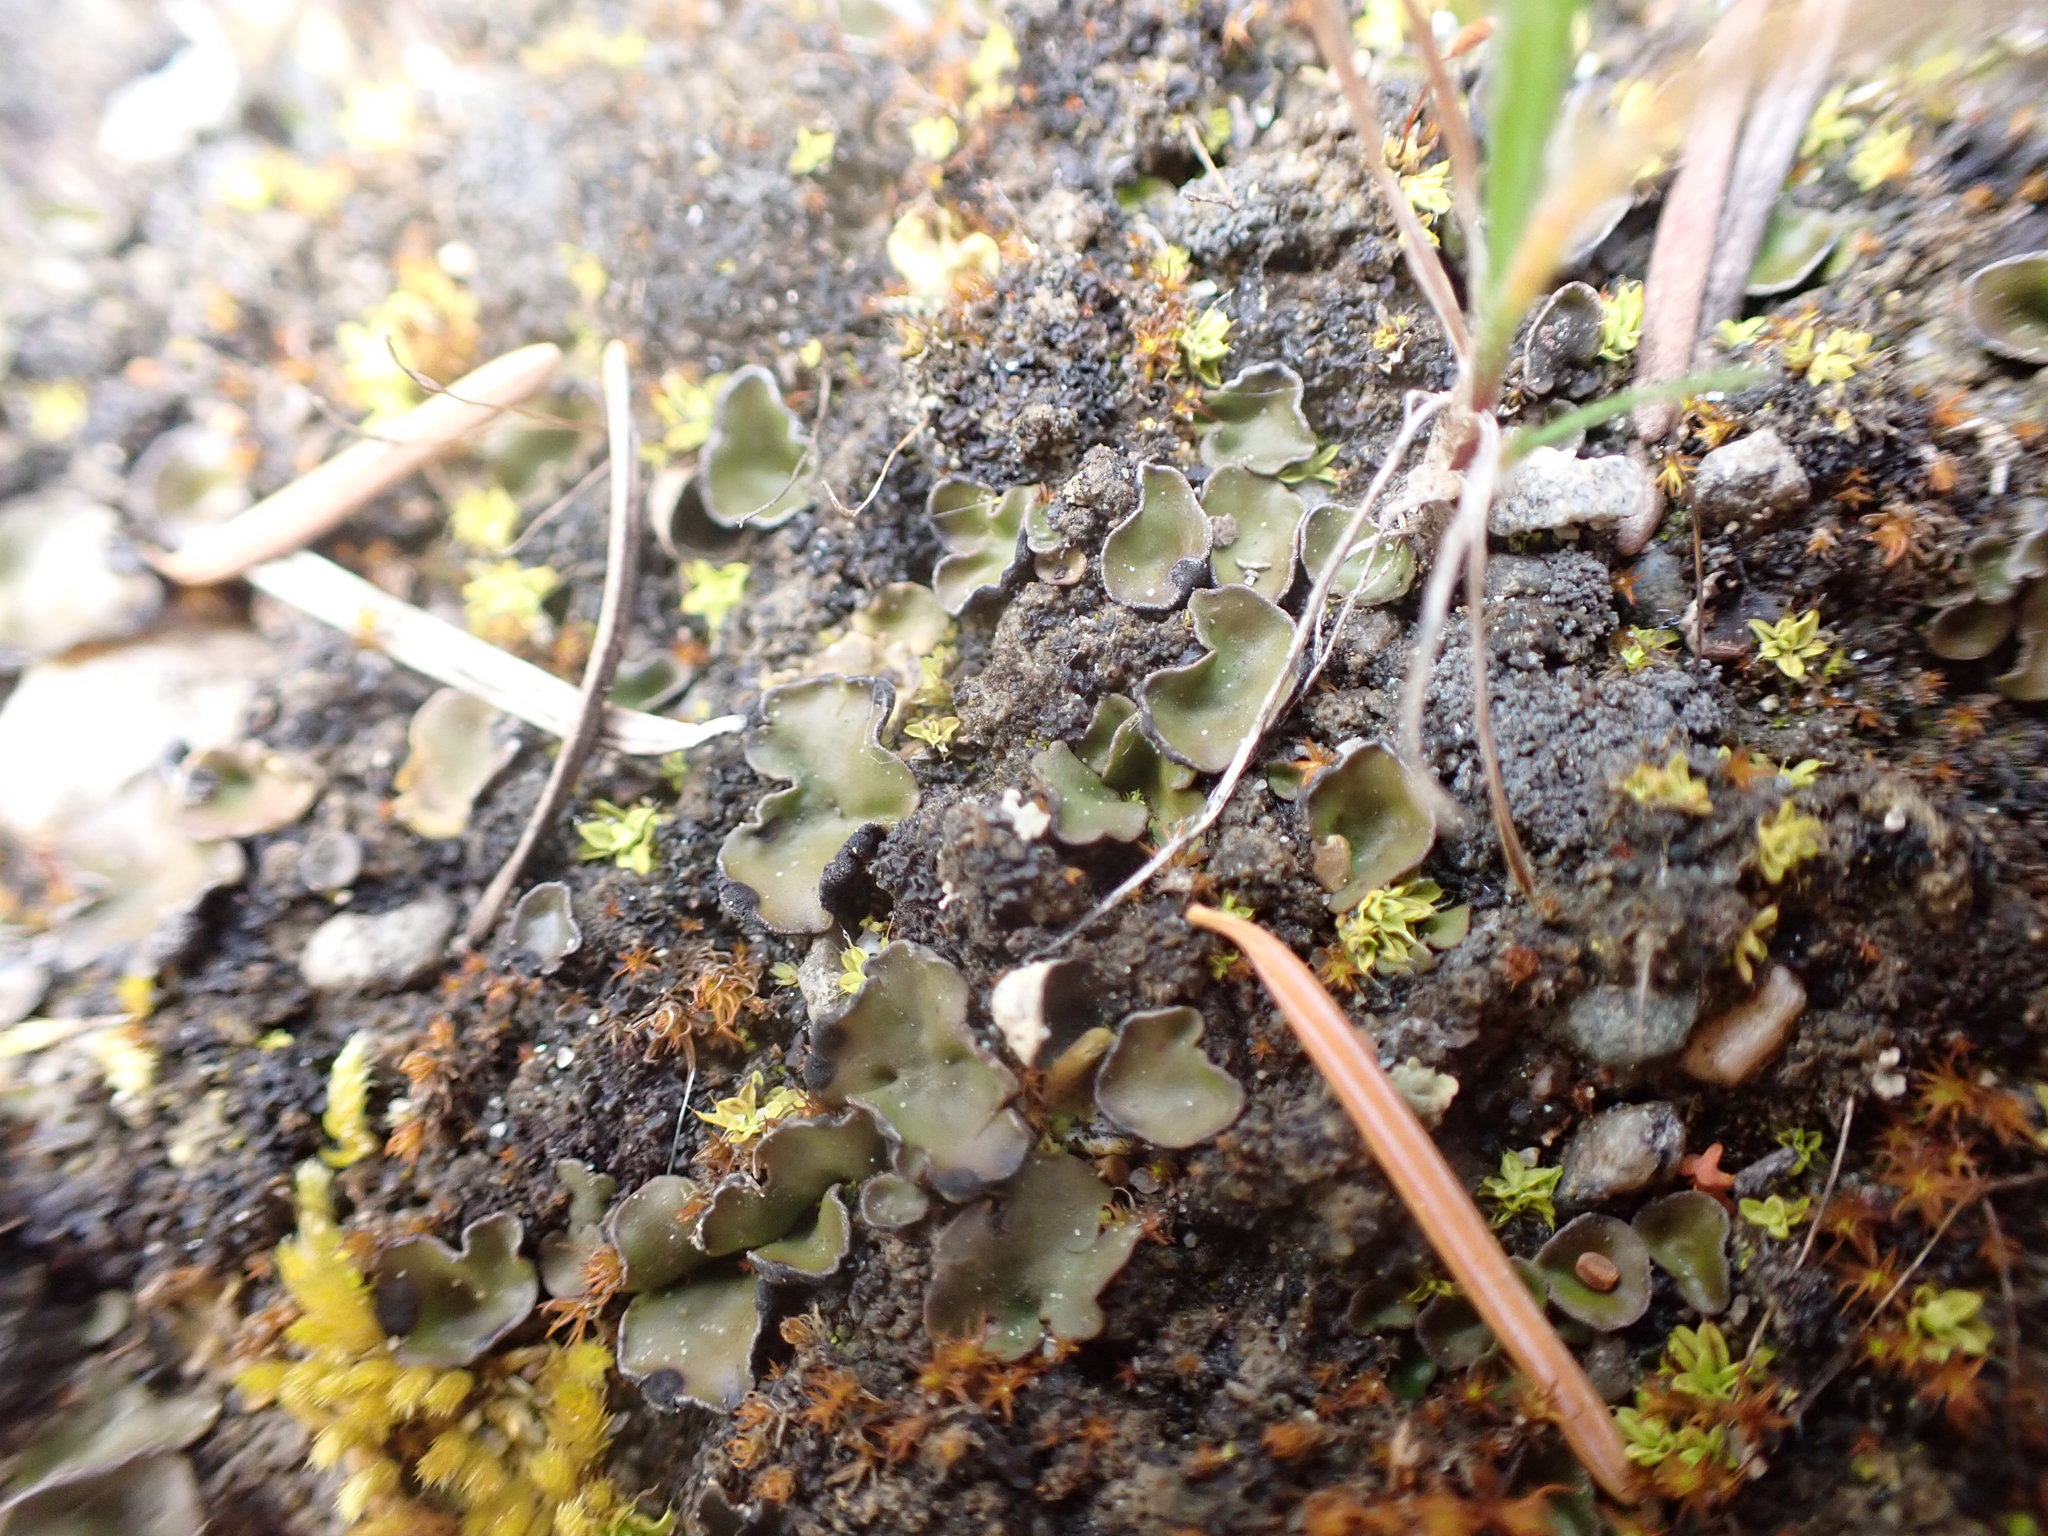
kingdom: Fungi
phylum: Ascomycota
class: Lecanoromycetes
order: Peltigerales
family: Peltigeraceae
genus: Peltigera
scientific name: Peltigera venosa
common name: Pixie gowns lichen
